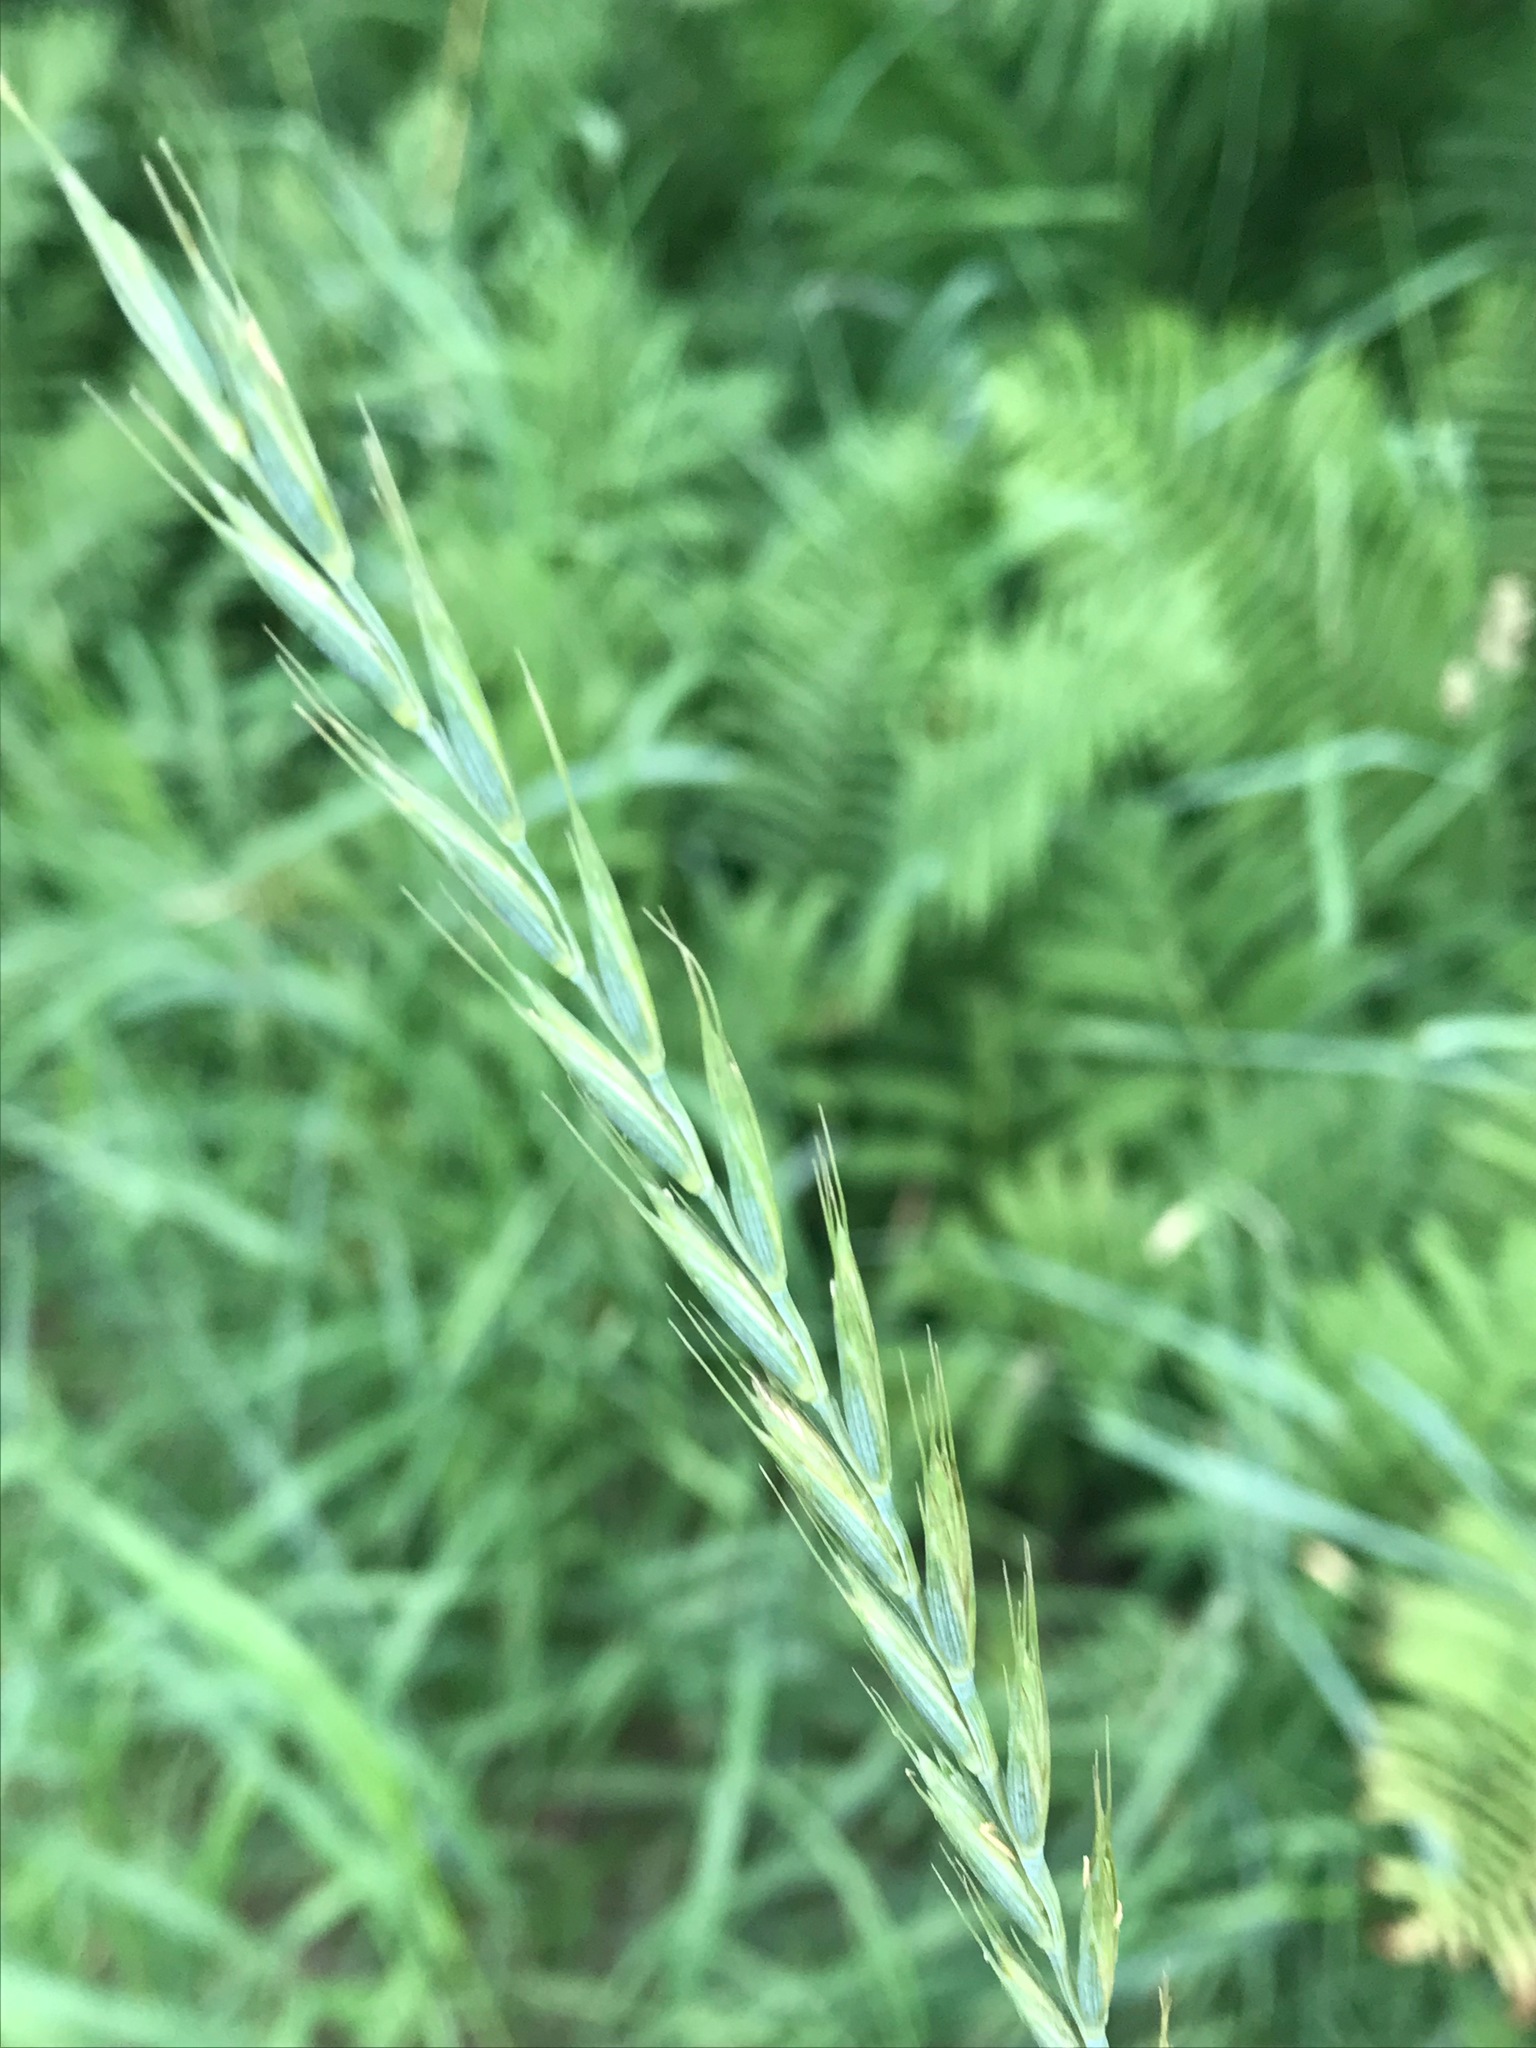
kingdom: Plantae
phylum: Tracheophyta
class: Liliopsida
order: Poales
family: Poaceae
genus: Elymus
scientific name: Elymus repens
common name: Quackgrass
